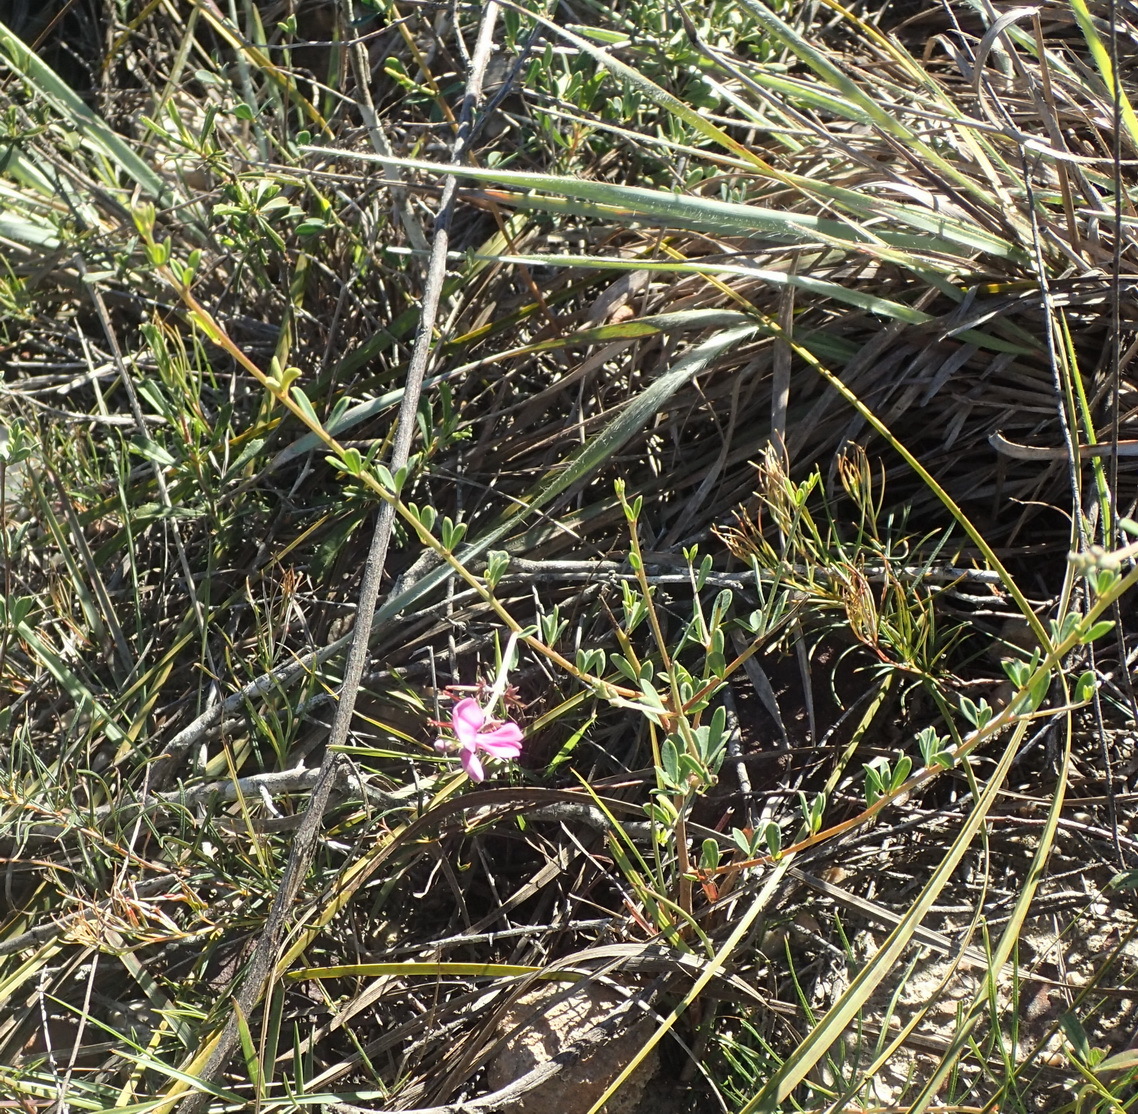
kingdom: Plantae
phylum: Tracheophyta
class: Magnoliopsida
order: Fabales
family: Fabaceae
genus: Indigofera
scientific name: Indigofera denudata
